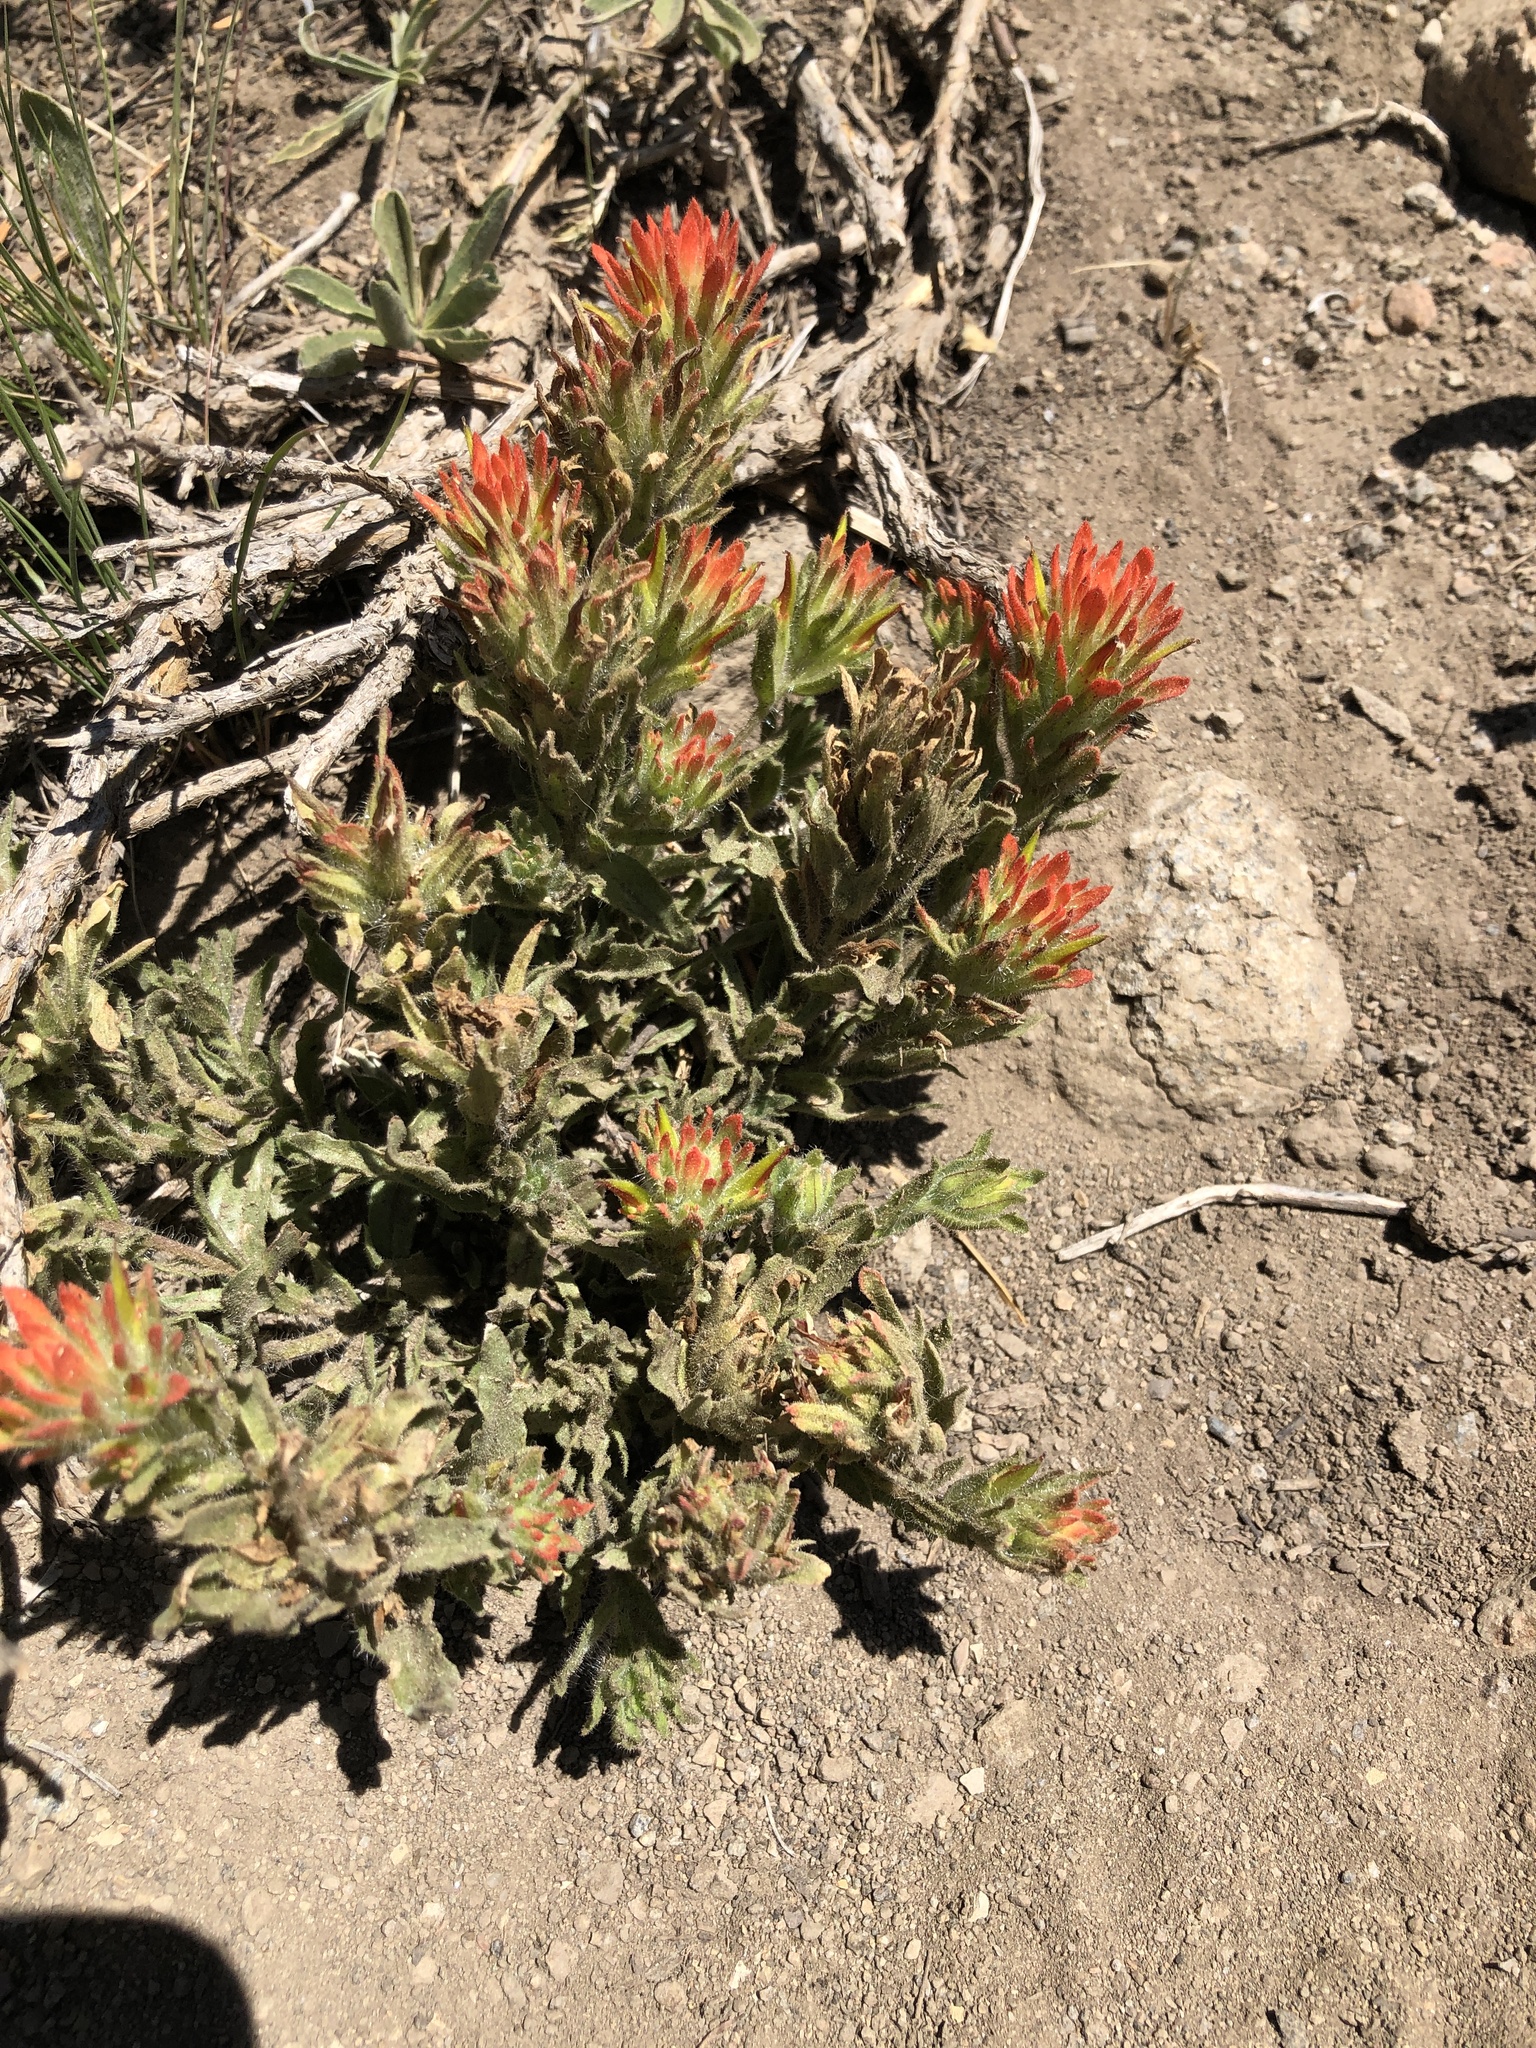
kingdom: Plantae
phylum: Tracheophyta
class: Magnoliopsida
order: Lamiales
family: Orobanchaceae
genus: Castilleja
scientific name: Castilleja applegatei
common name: Wavy-leaf paintbrush
